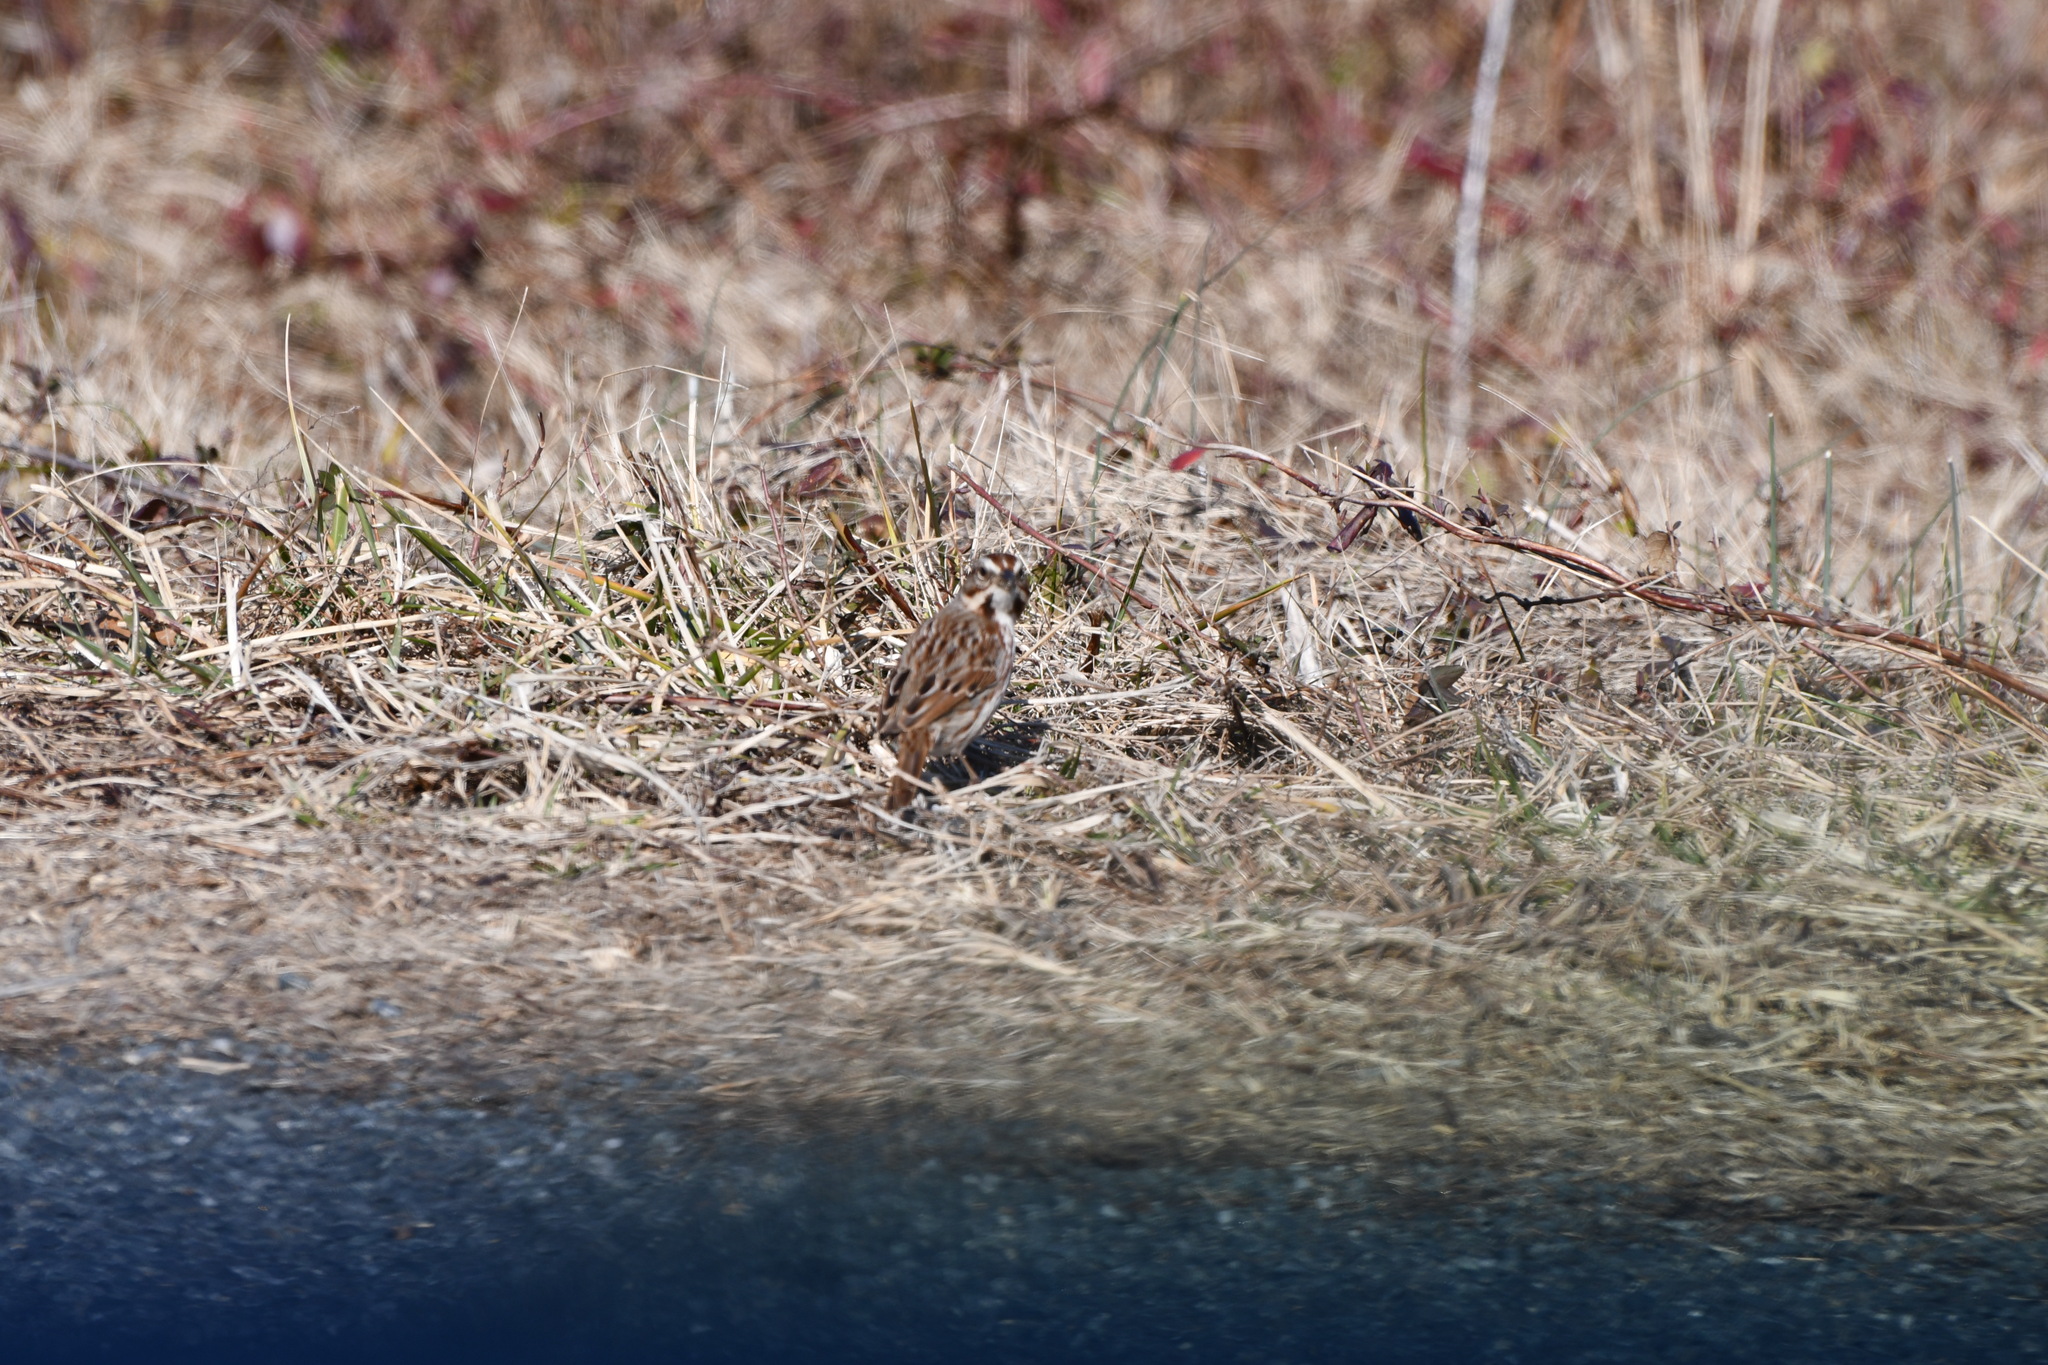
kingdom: Animalia
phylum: Chordata
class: Aves
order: Passeriformes
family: Passerellidae
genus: Melospiza
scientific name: Melospiza melodia
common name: Song sparrow
